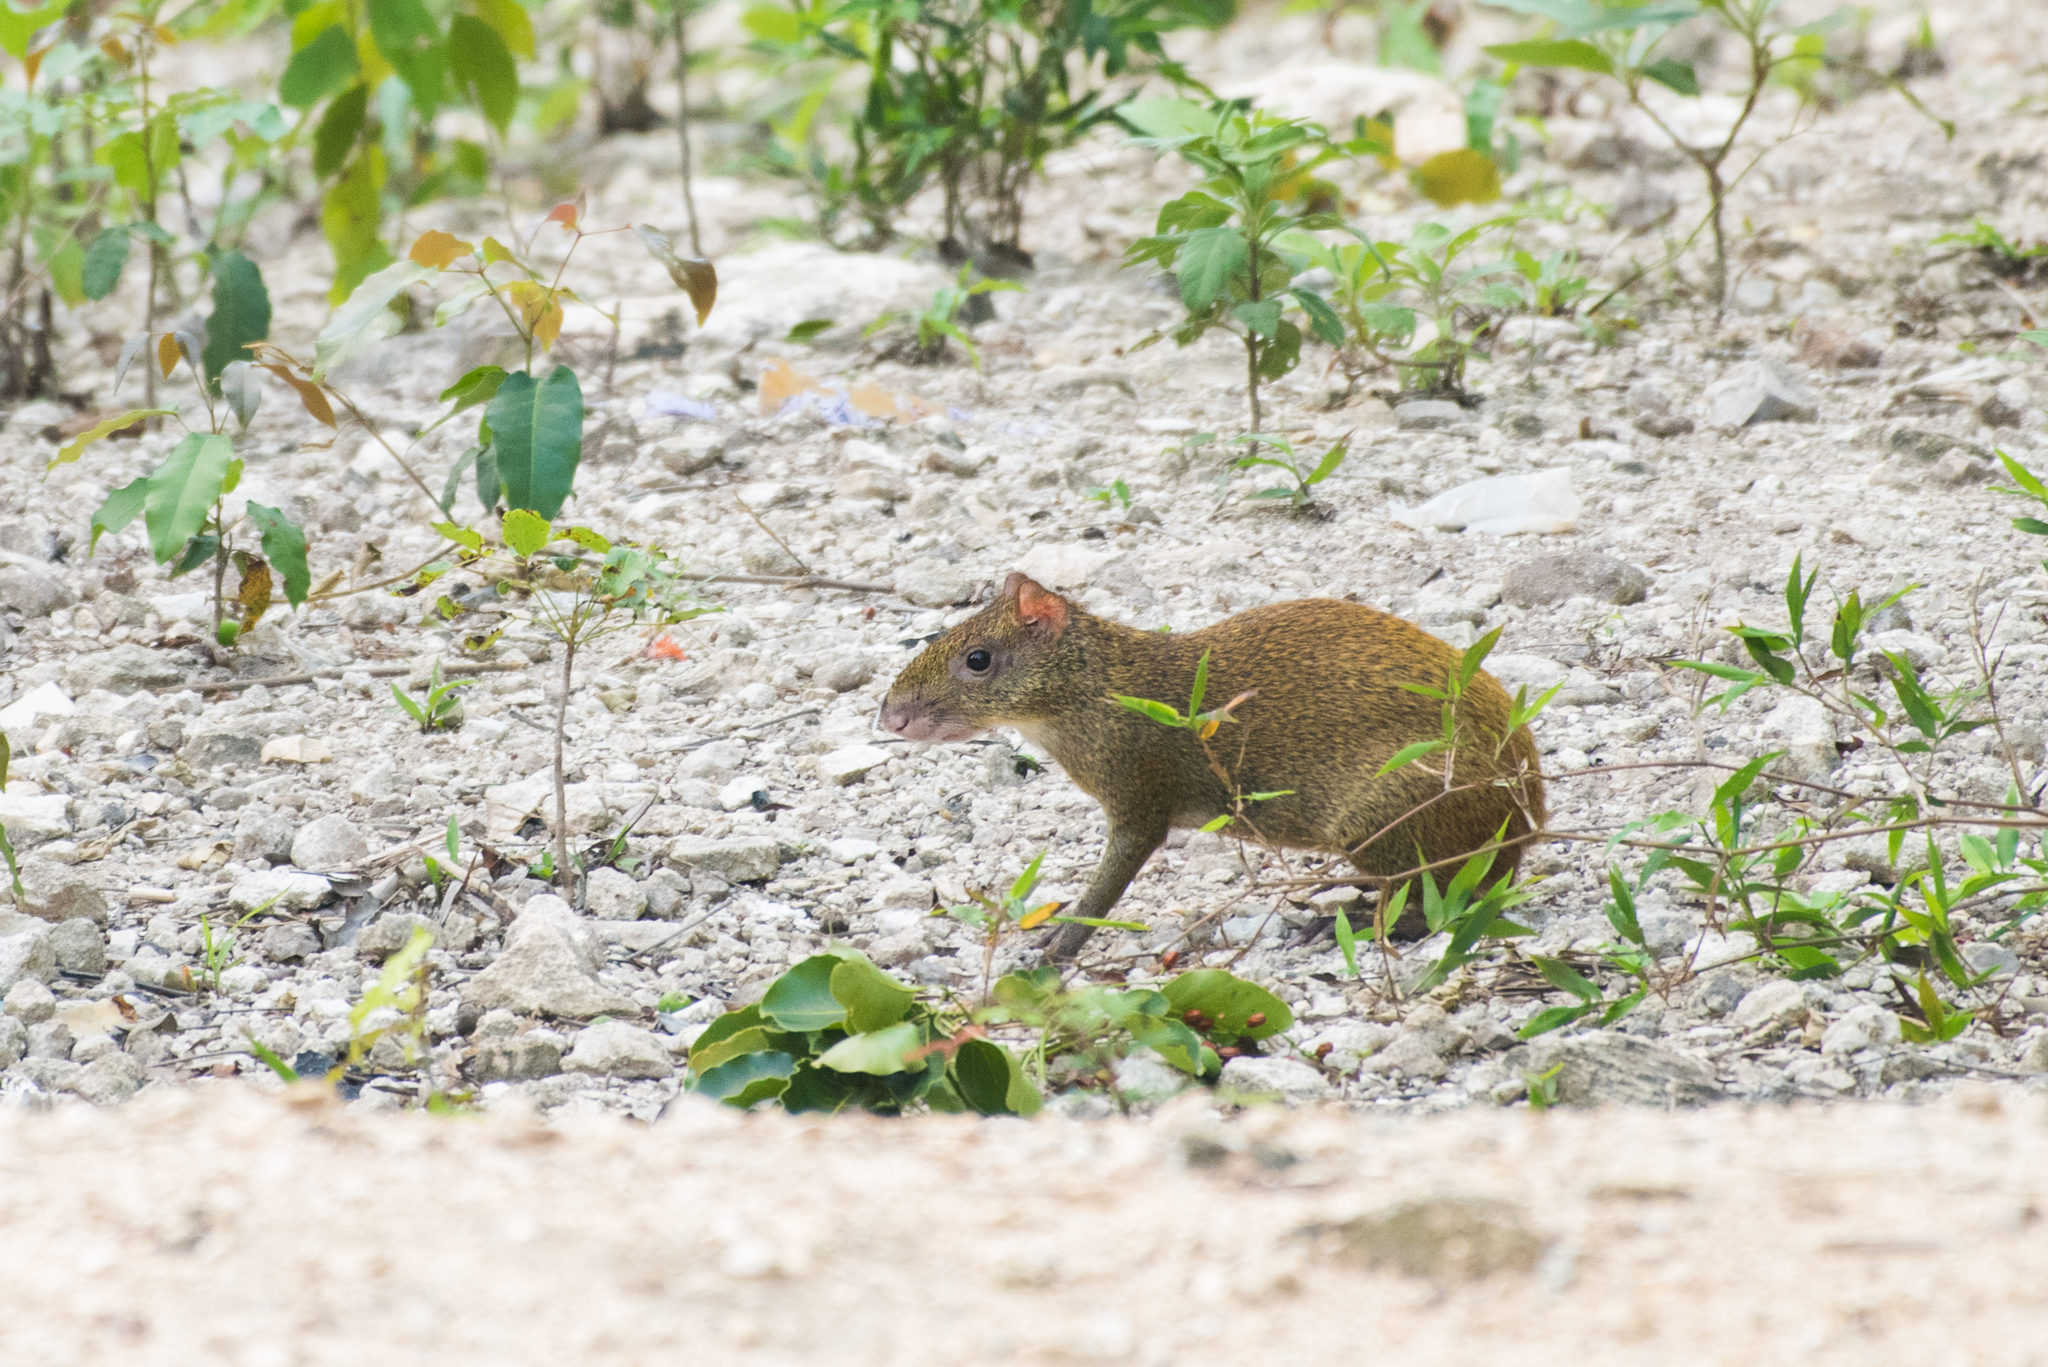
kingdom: Animalia
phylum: Chordata
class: Mammalia
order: Rodentia
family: Dasyproctidae
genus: Dasyprocta
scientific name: Dasyprocta punctata
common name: Central american agouti
